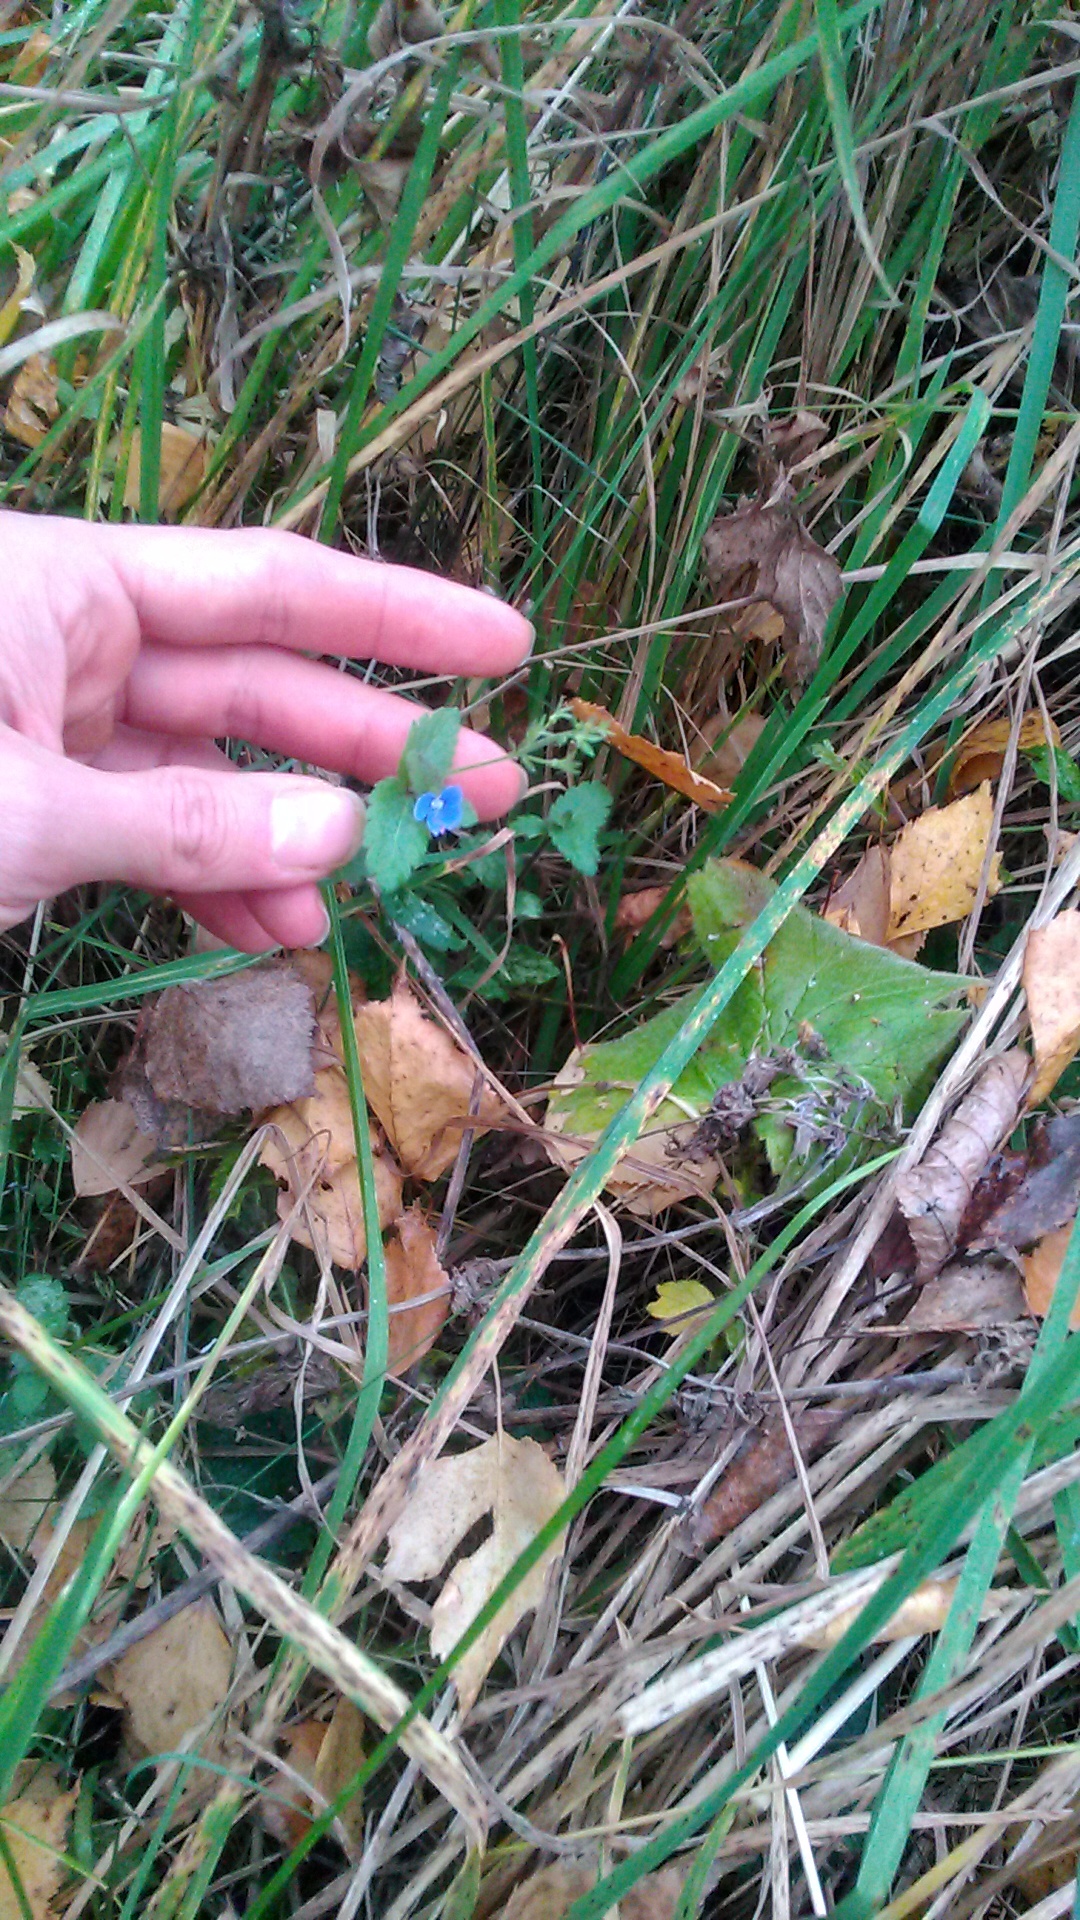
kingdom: Plantae
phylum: Tracheophyta
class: Magnoliopsida
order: Lamiales
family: Plantaginaceae
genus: Veronica
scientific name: Veronica chamaedrys
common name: Germander speedwell
